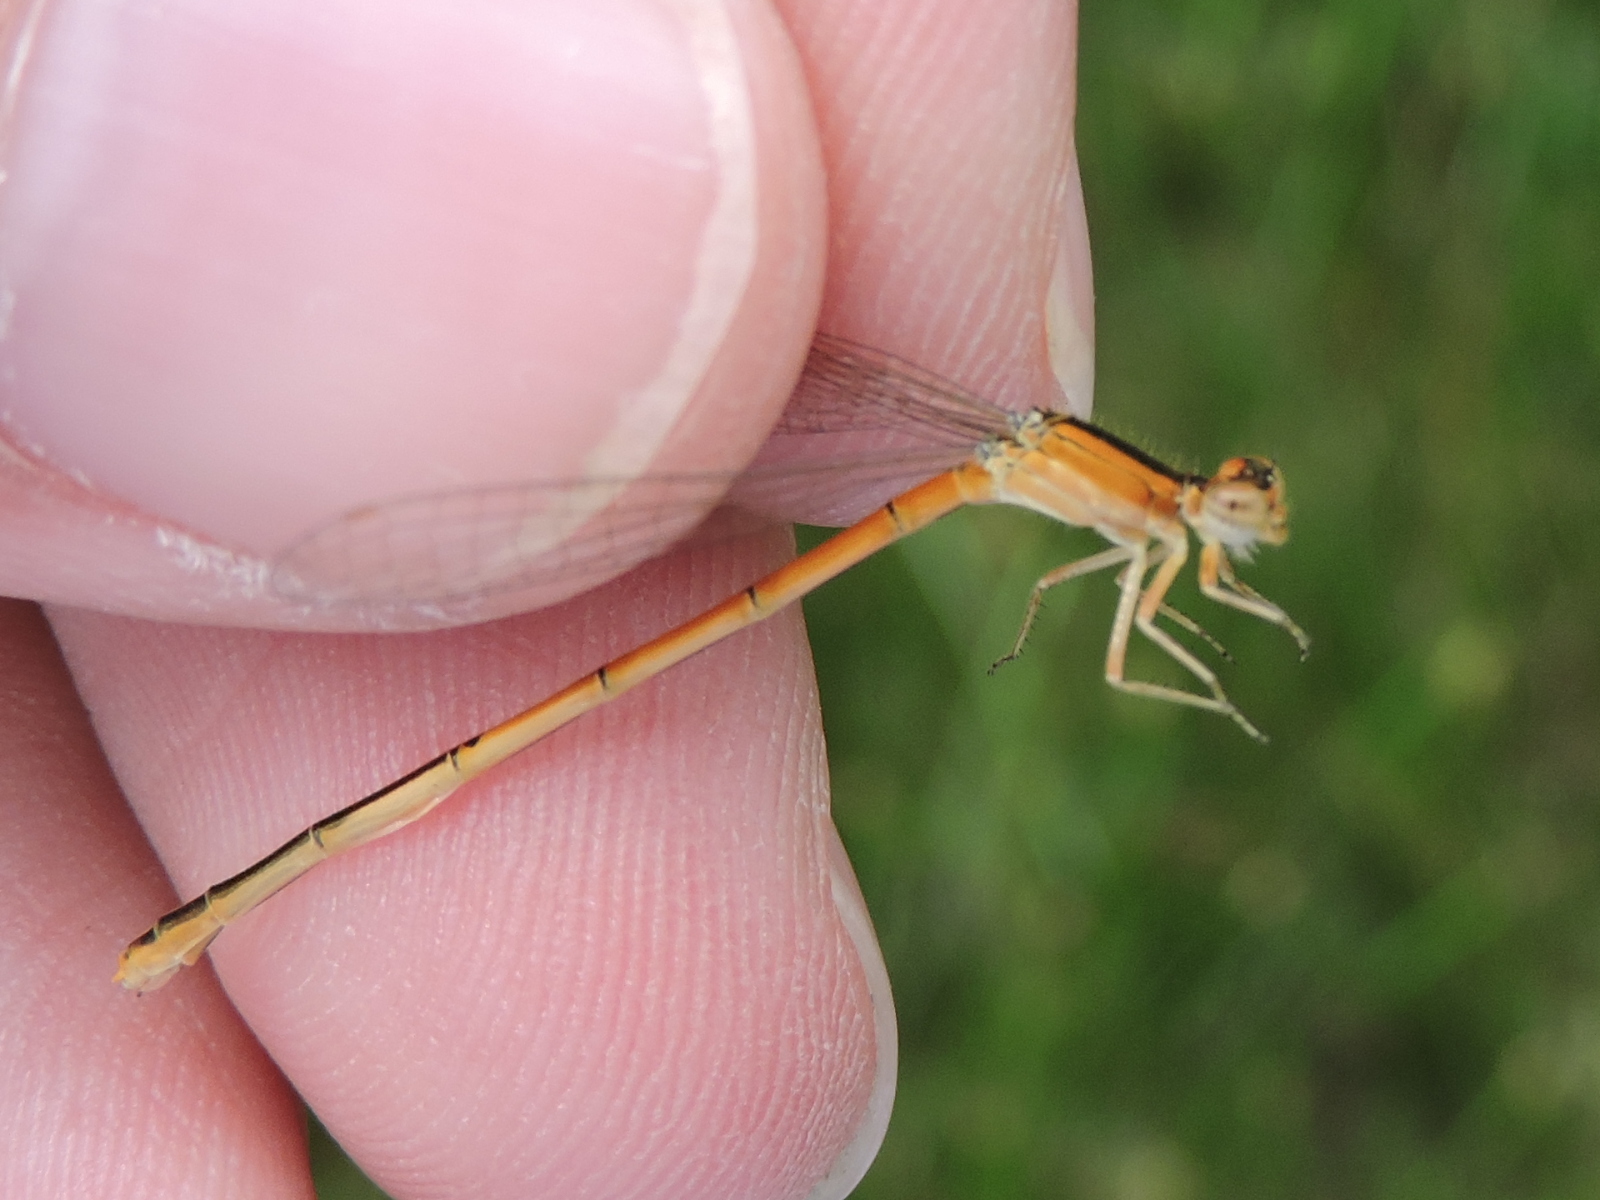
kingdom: Animalia
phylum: Arthropoda
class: Insecta
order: Odonata
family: Coenagrionidae
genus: Ischnura
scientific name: Ischnura hastata
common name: Citrine forktail
